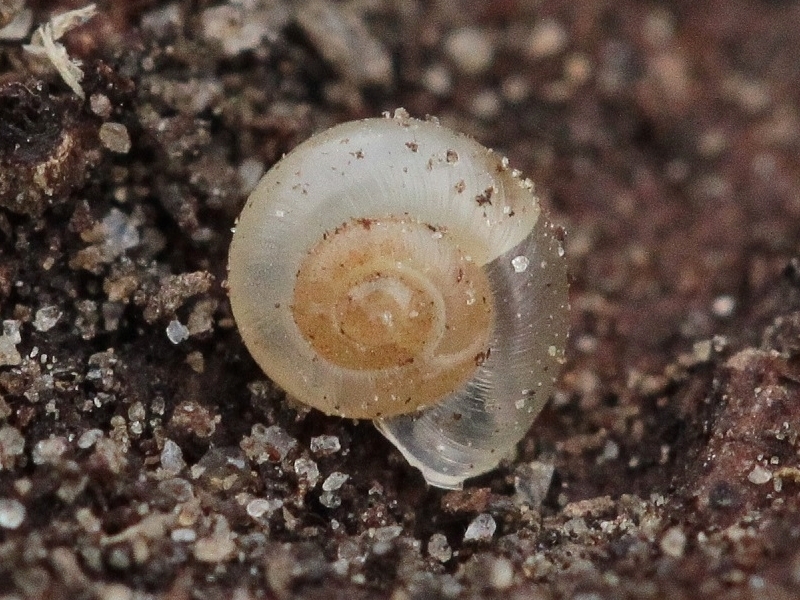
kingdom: Animalia
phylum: Mollusca
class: Gastropoda
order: Stylommatophora
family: Valloniidae
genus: Vallonia
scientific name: Vallonia pulchella
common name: Smooth grass snail
